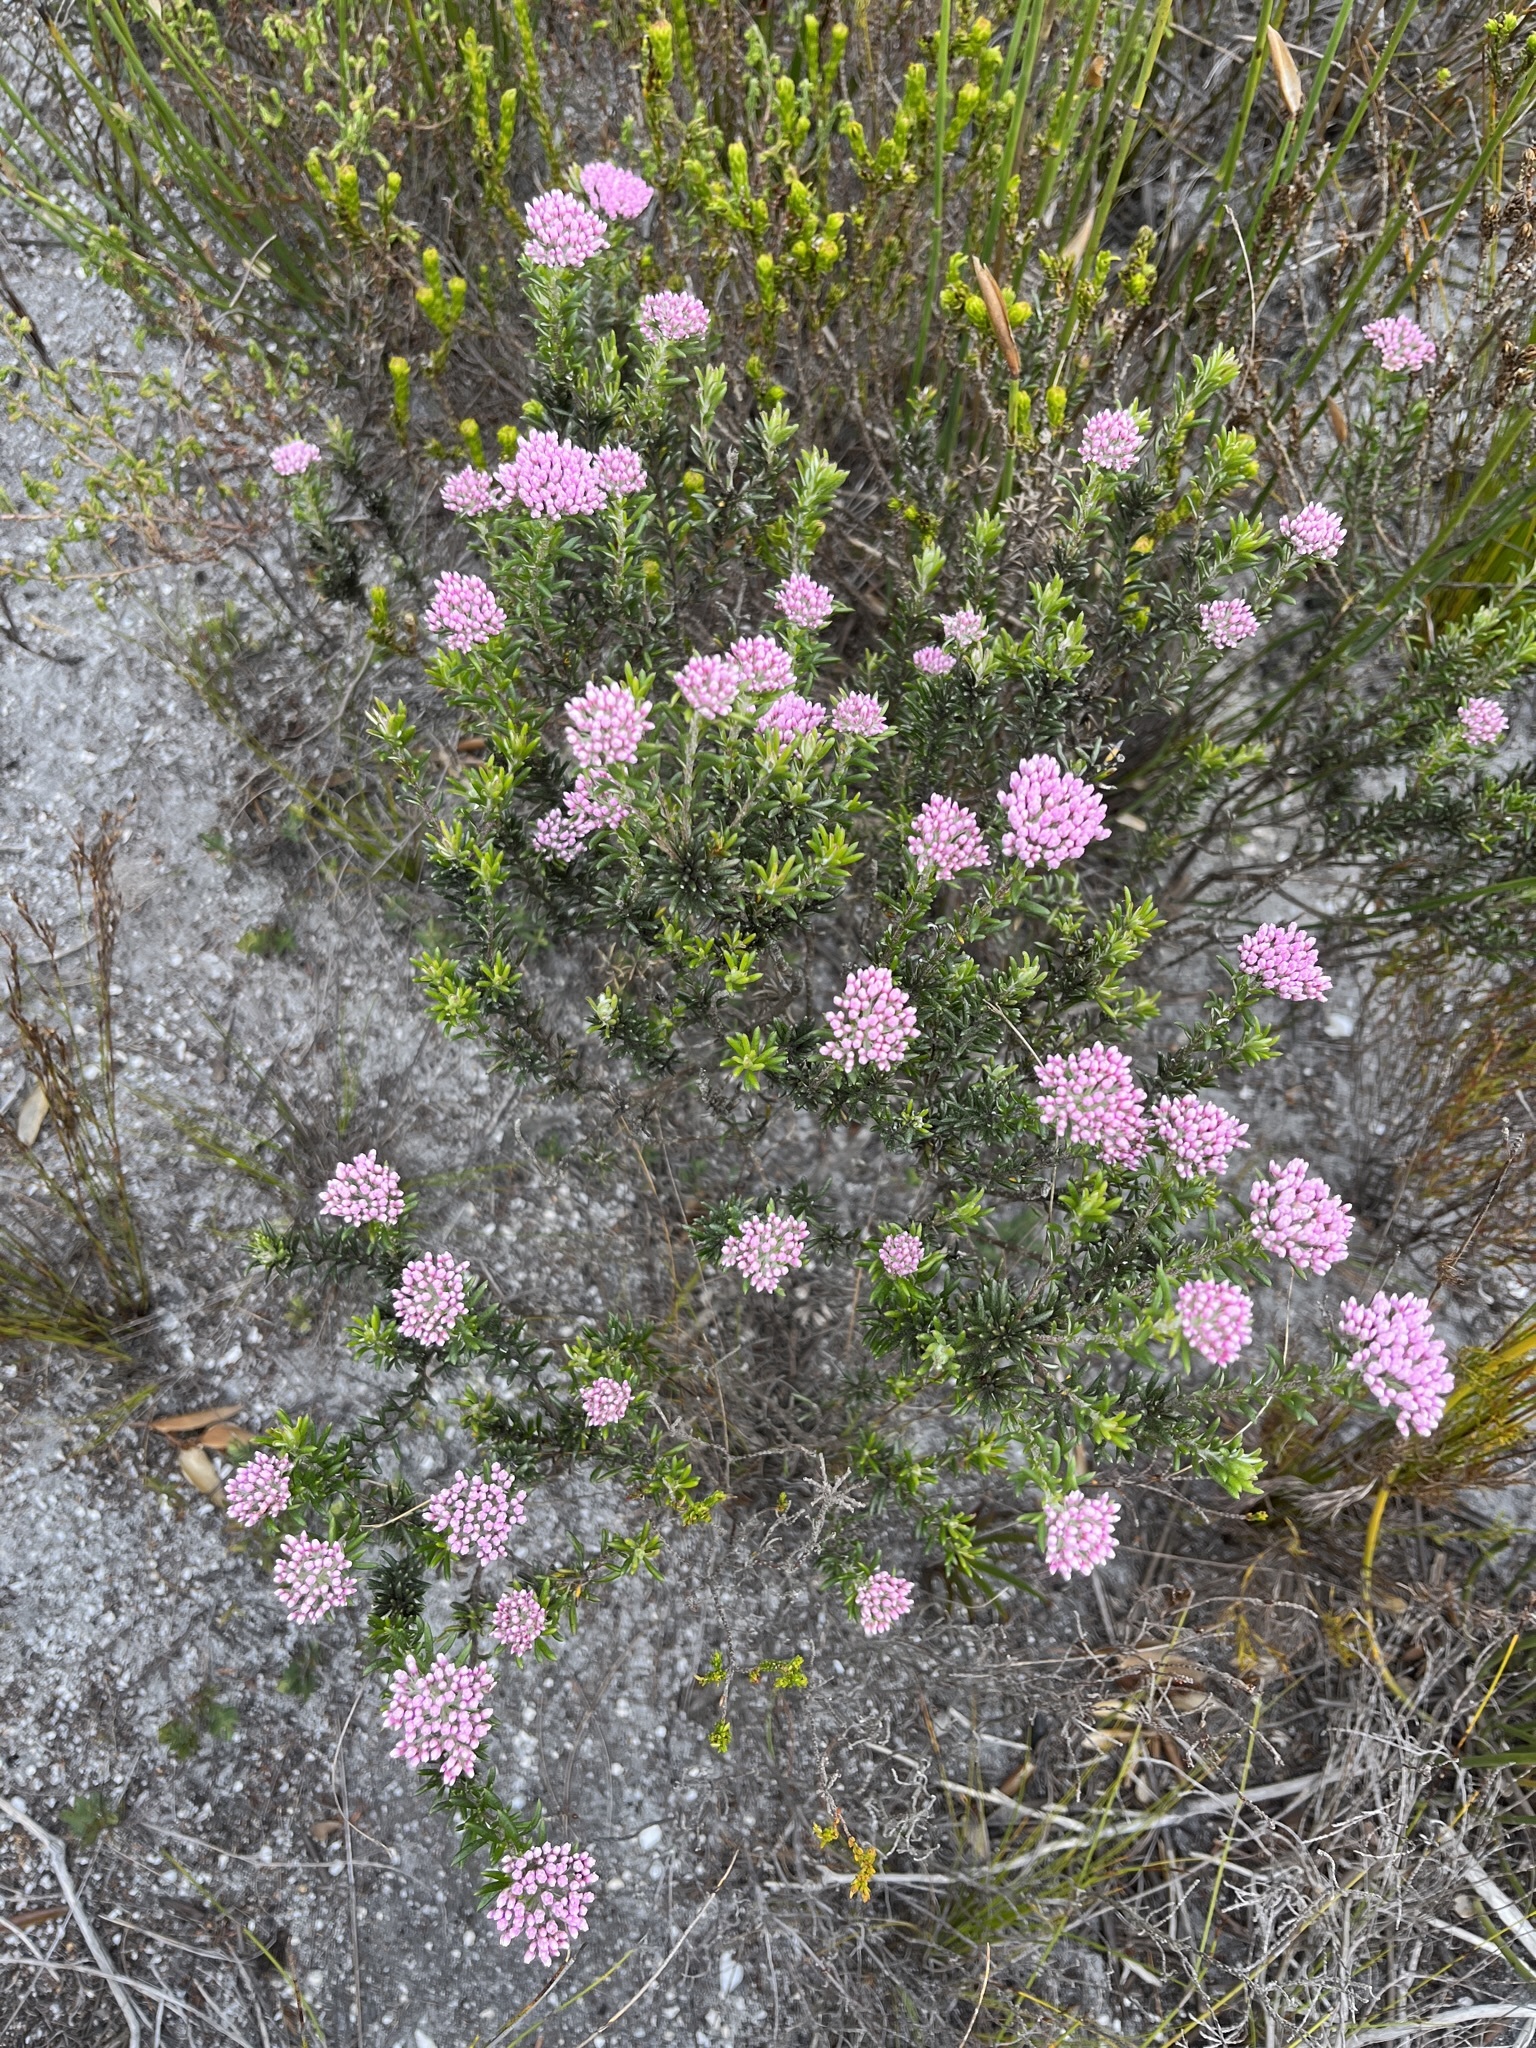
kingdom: Plantae
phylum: Tracheophyta
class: Magnoliopsida
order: Asterales
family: Asteraceae
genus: Metalasia
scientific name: Metalasia erubescens
